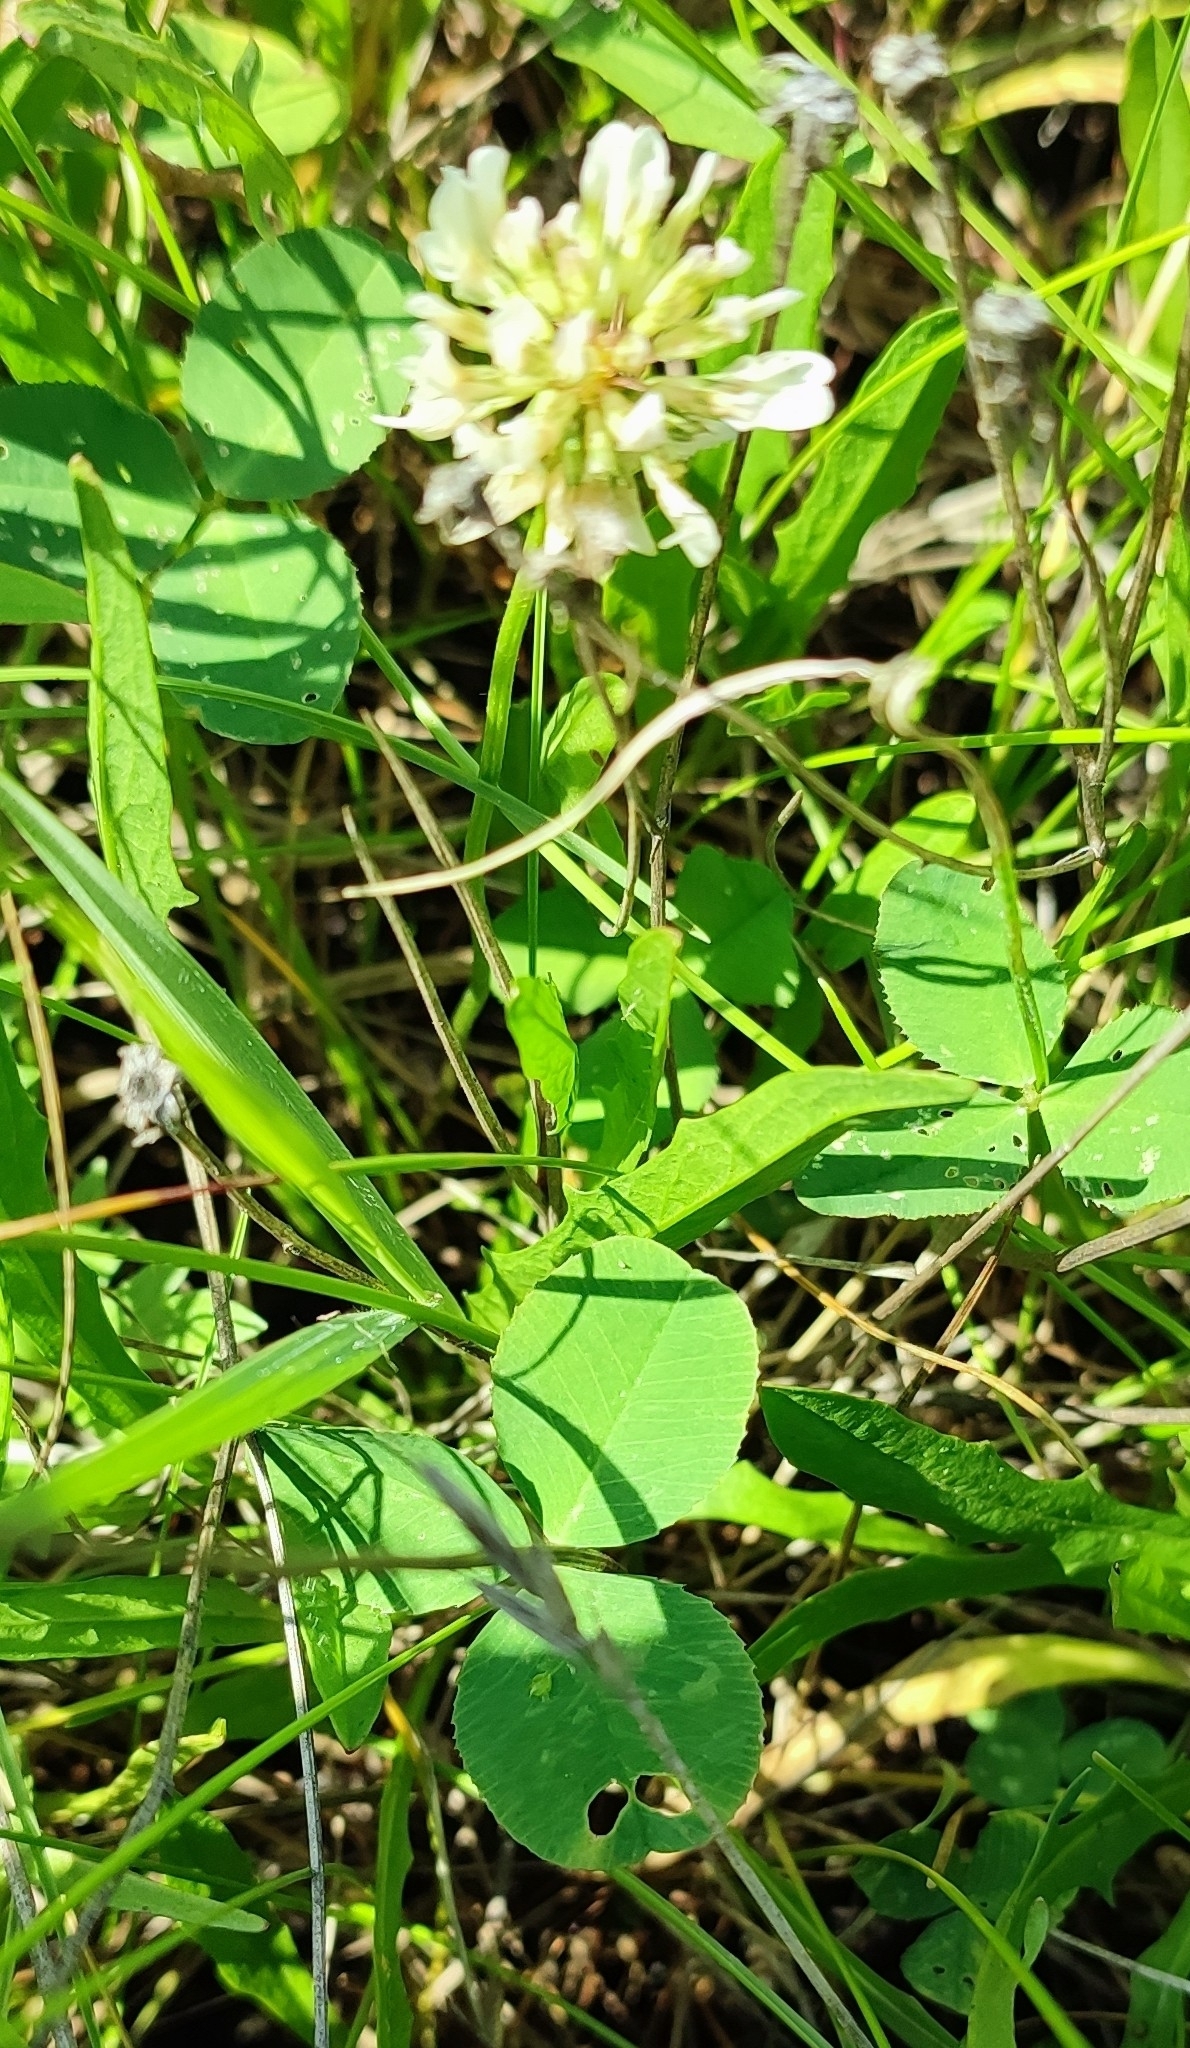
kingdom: Plantae
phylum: Tracheophyta
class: Magnoliopsida
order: Fabales
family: Fabaceae
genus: Trifolium
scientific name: Trifolium repens
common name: White clover
